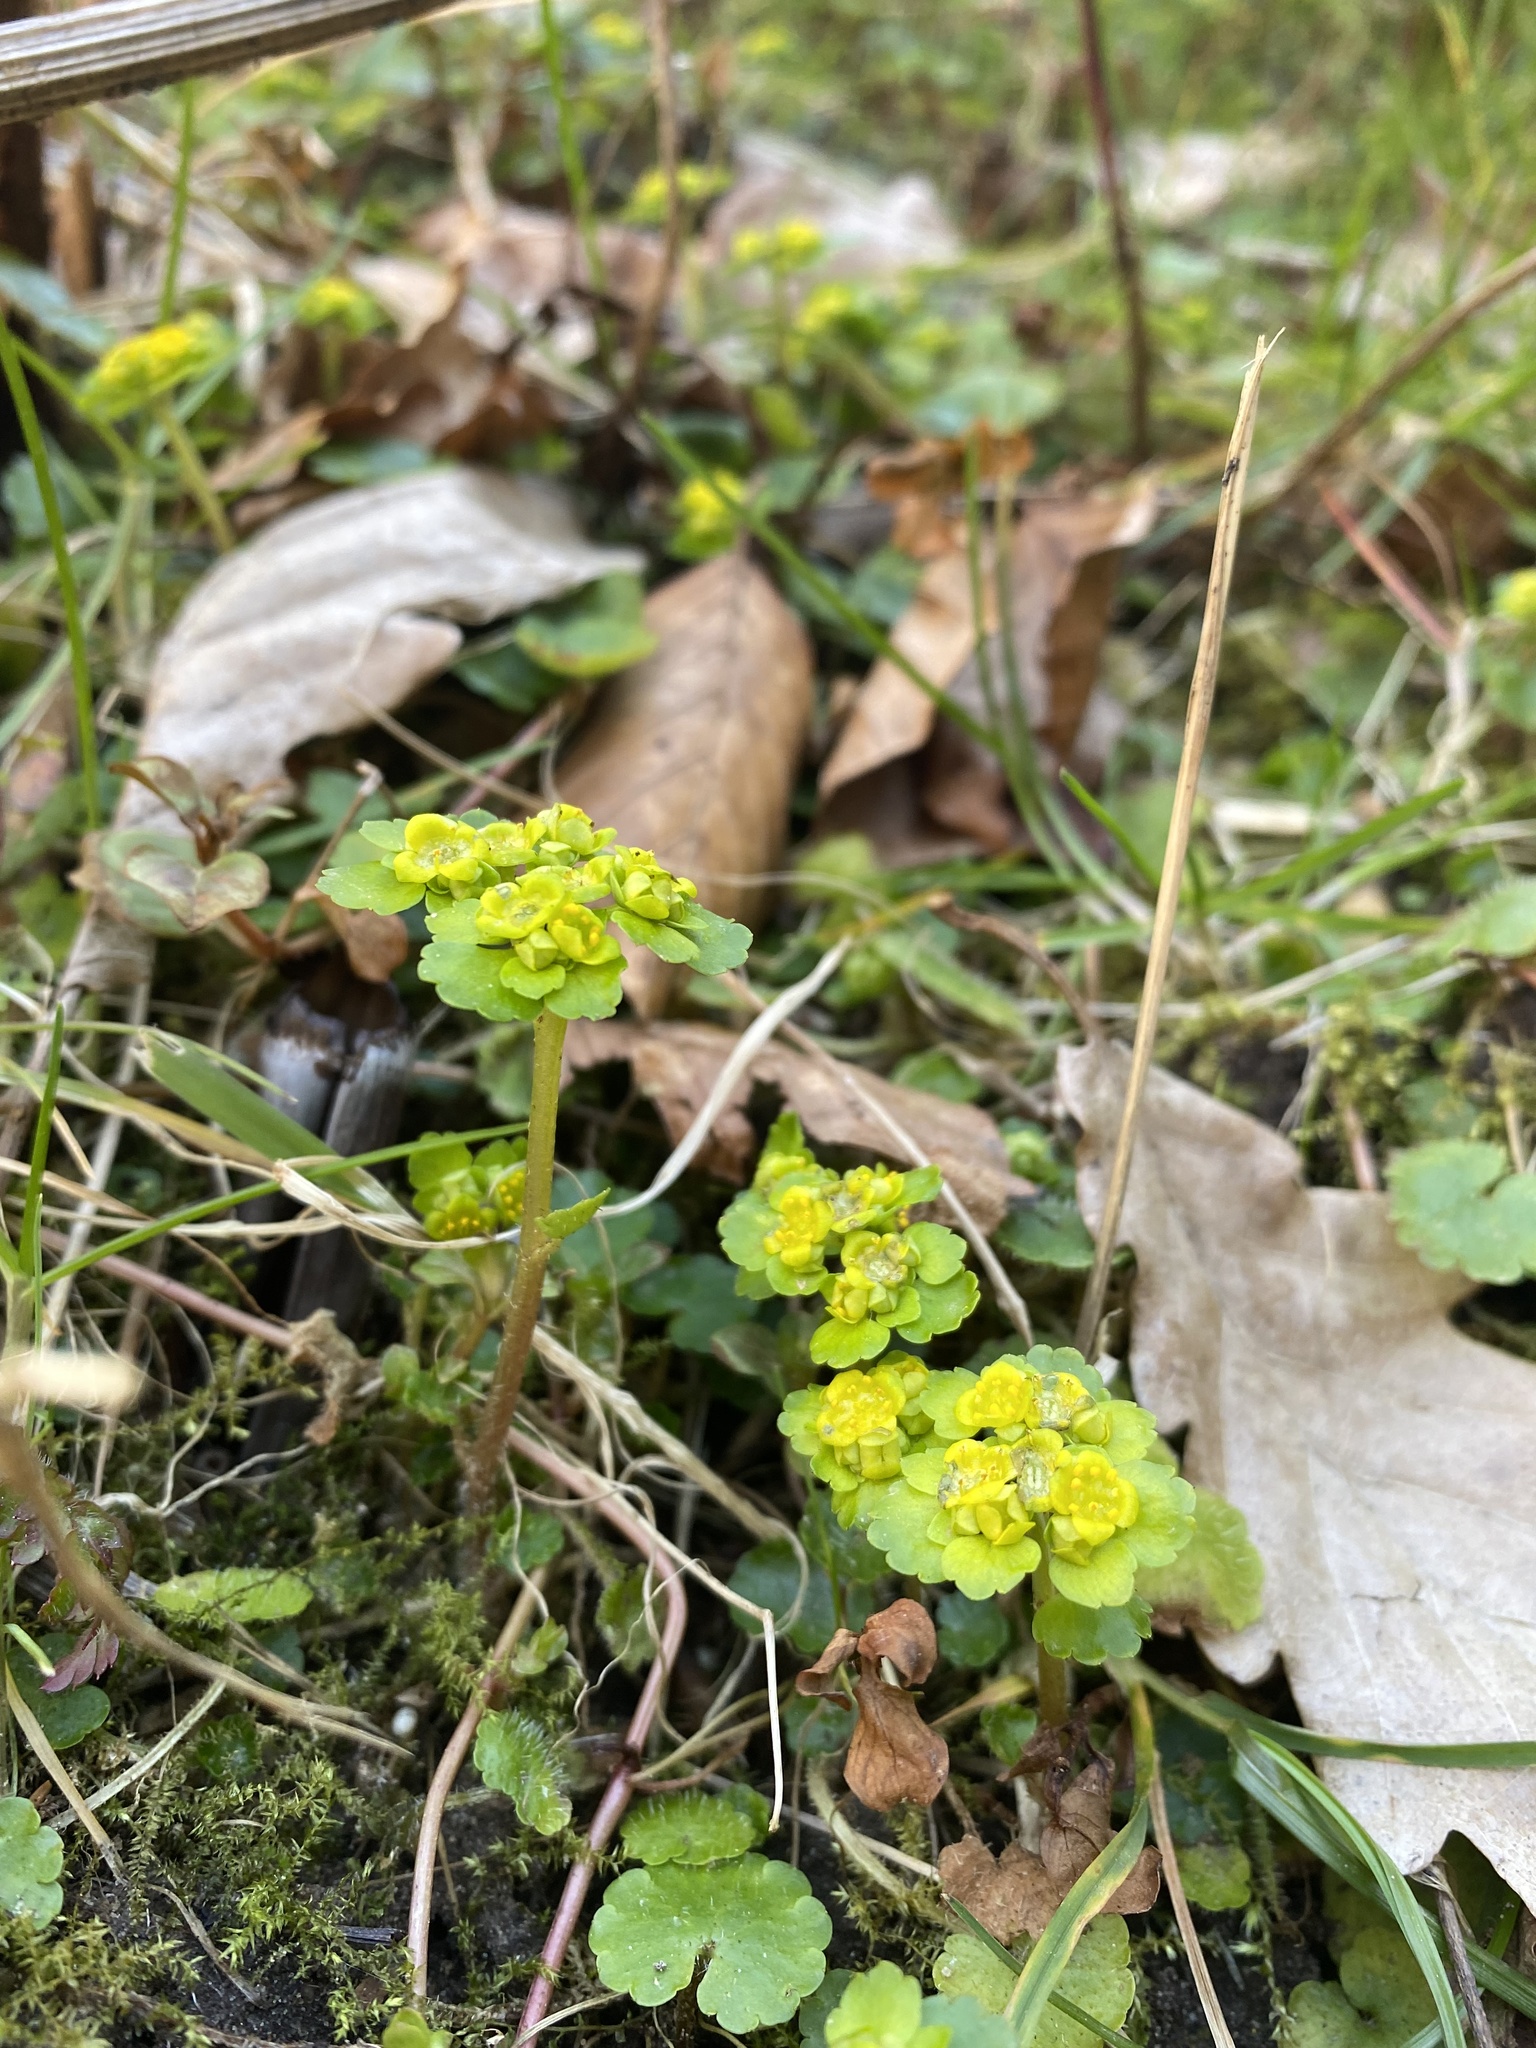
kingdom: Plantae
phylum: Tracheophyta
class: Magnoliopsida
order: Saxifragales
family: Saxifragaceae
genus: Chrysosplenium
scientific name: Chrysosplenium alternifolium
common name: Alternate-leaved golden-saxifrage
